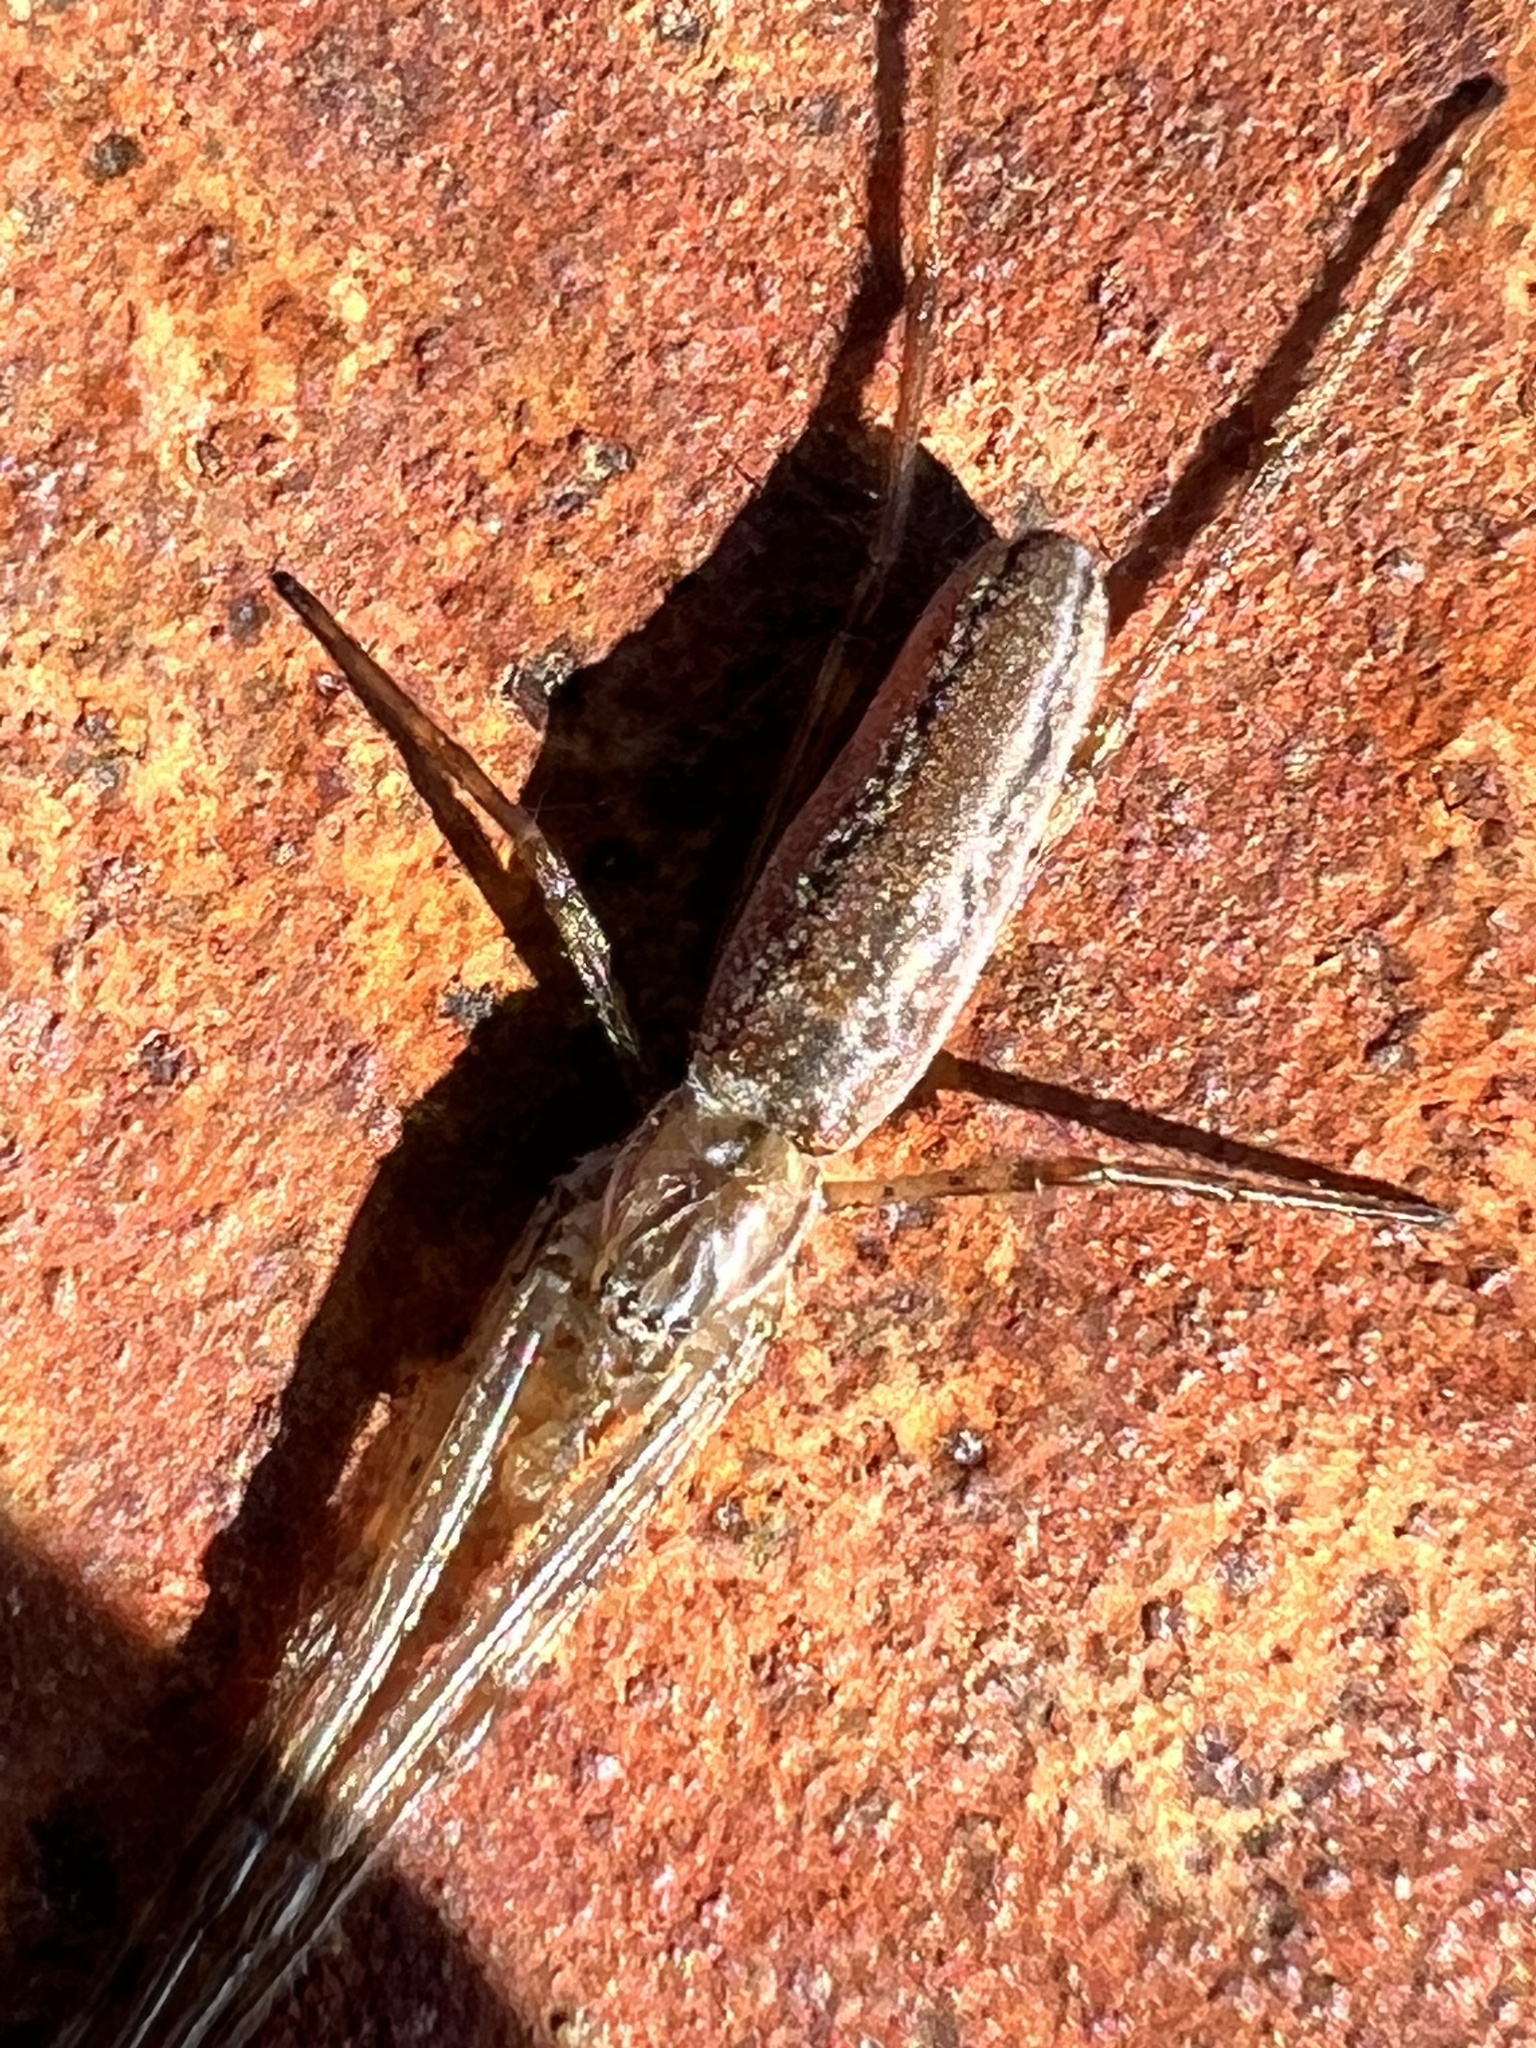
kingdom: Animalia
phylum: Arthropoda
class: Arachnida
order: Araneae
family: Tetragnathidae
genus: Tetragnatha
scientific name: Tetragnatha versicolor
